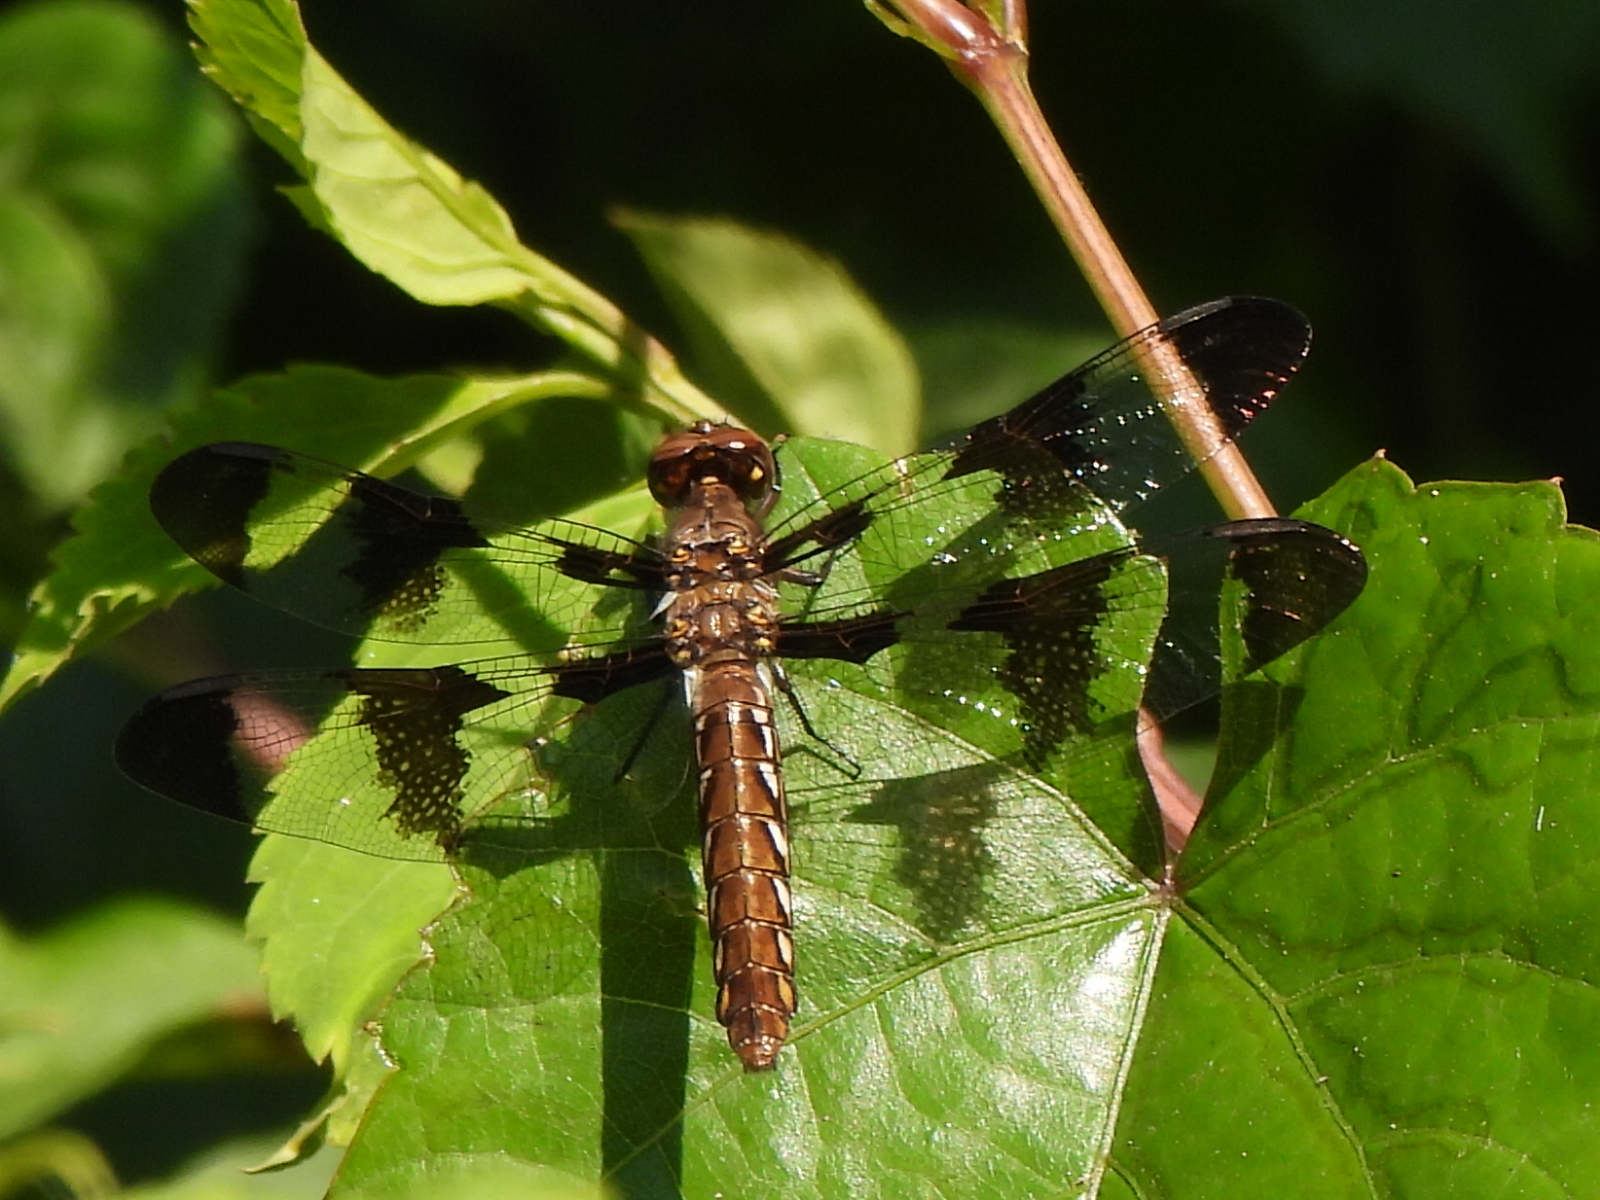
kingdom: Animalia
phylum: Arthropoda
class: Insecta
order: Odonata
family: Libellulidae
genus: Plathemis
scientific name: Plathemis lydia
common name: Common whitetail
